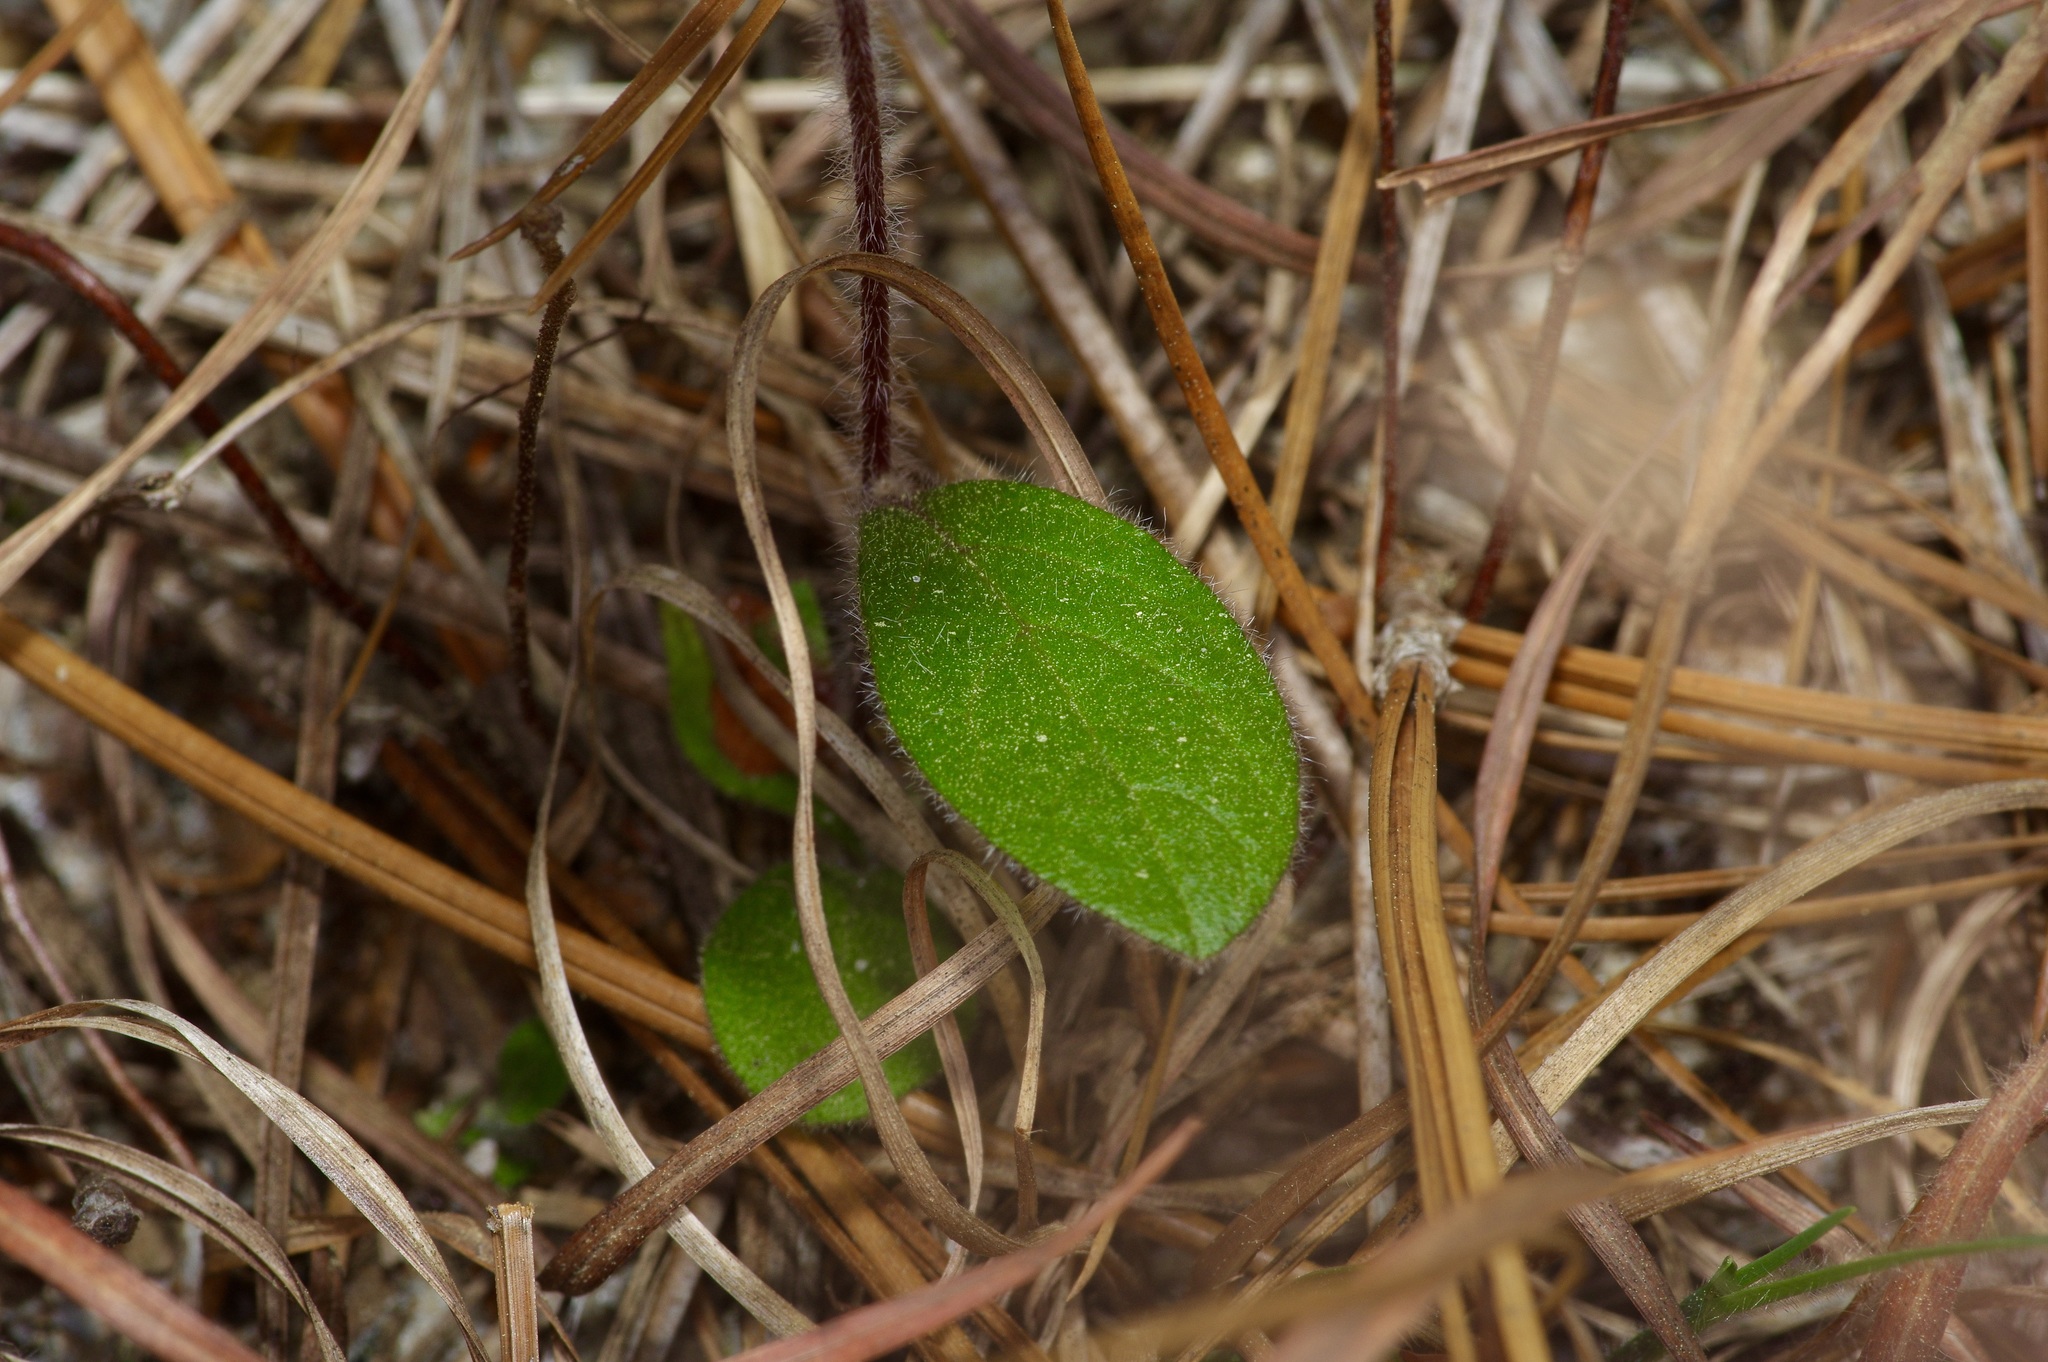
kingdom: Plantae
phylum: Tracheophyta
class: Magnoliopsida
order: Malvales
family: Cistaceae
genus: Crocanthemum
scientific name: Crocanthemum carolinianum
